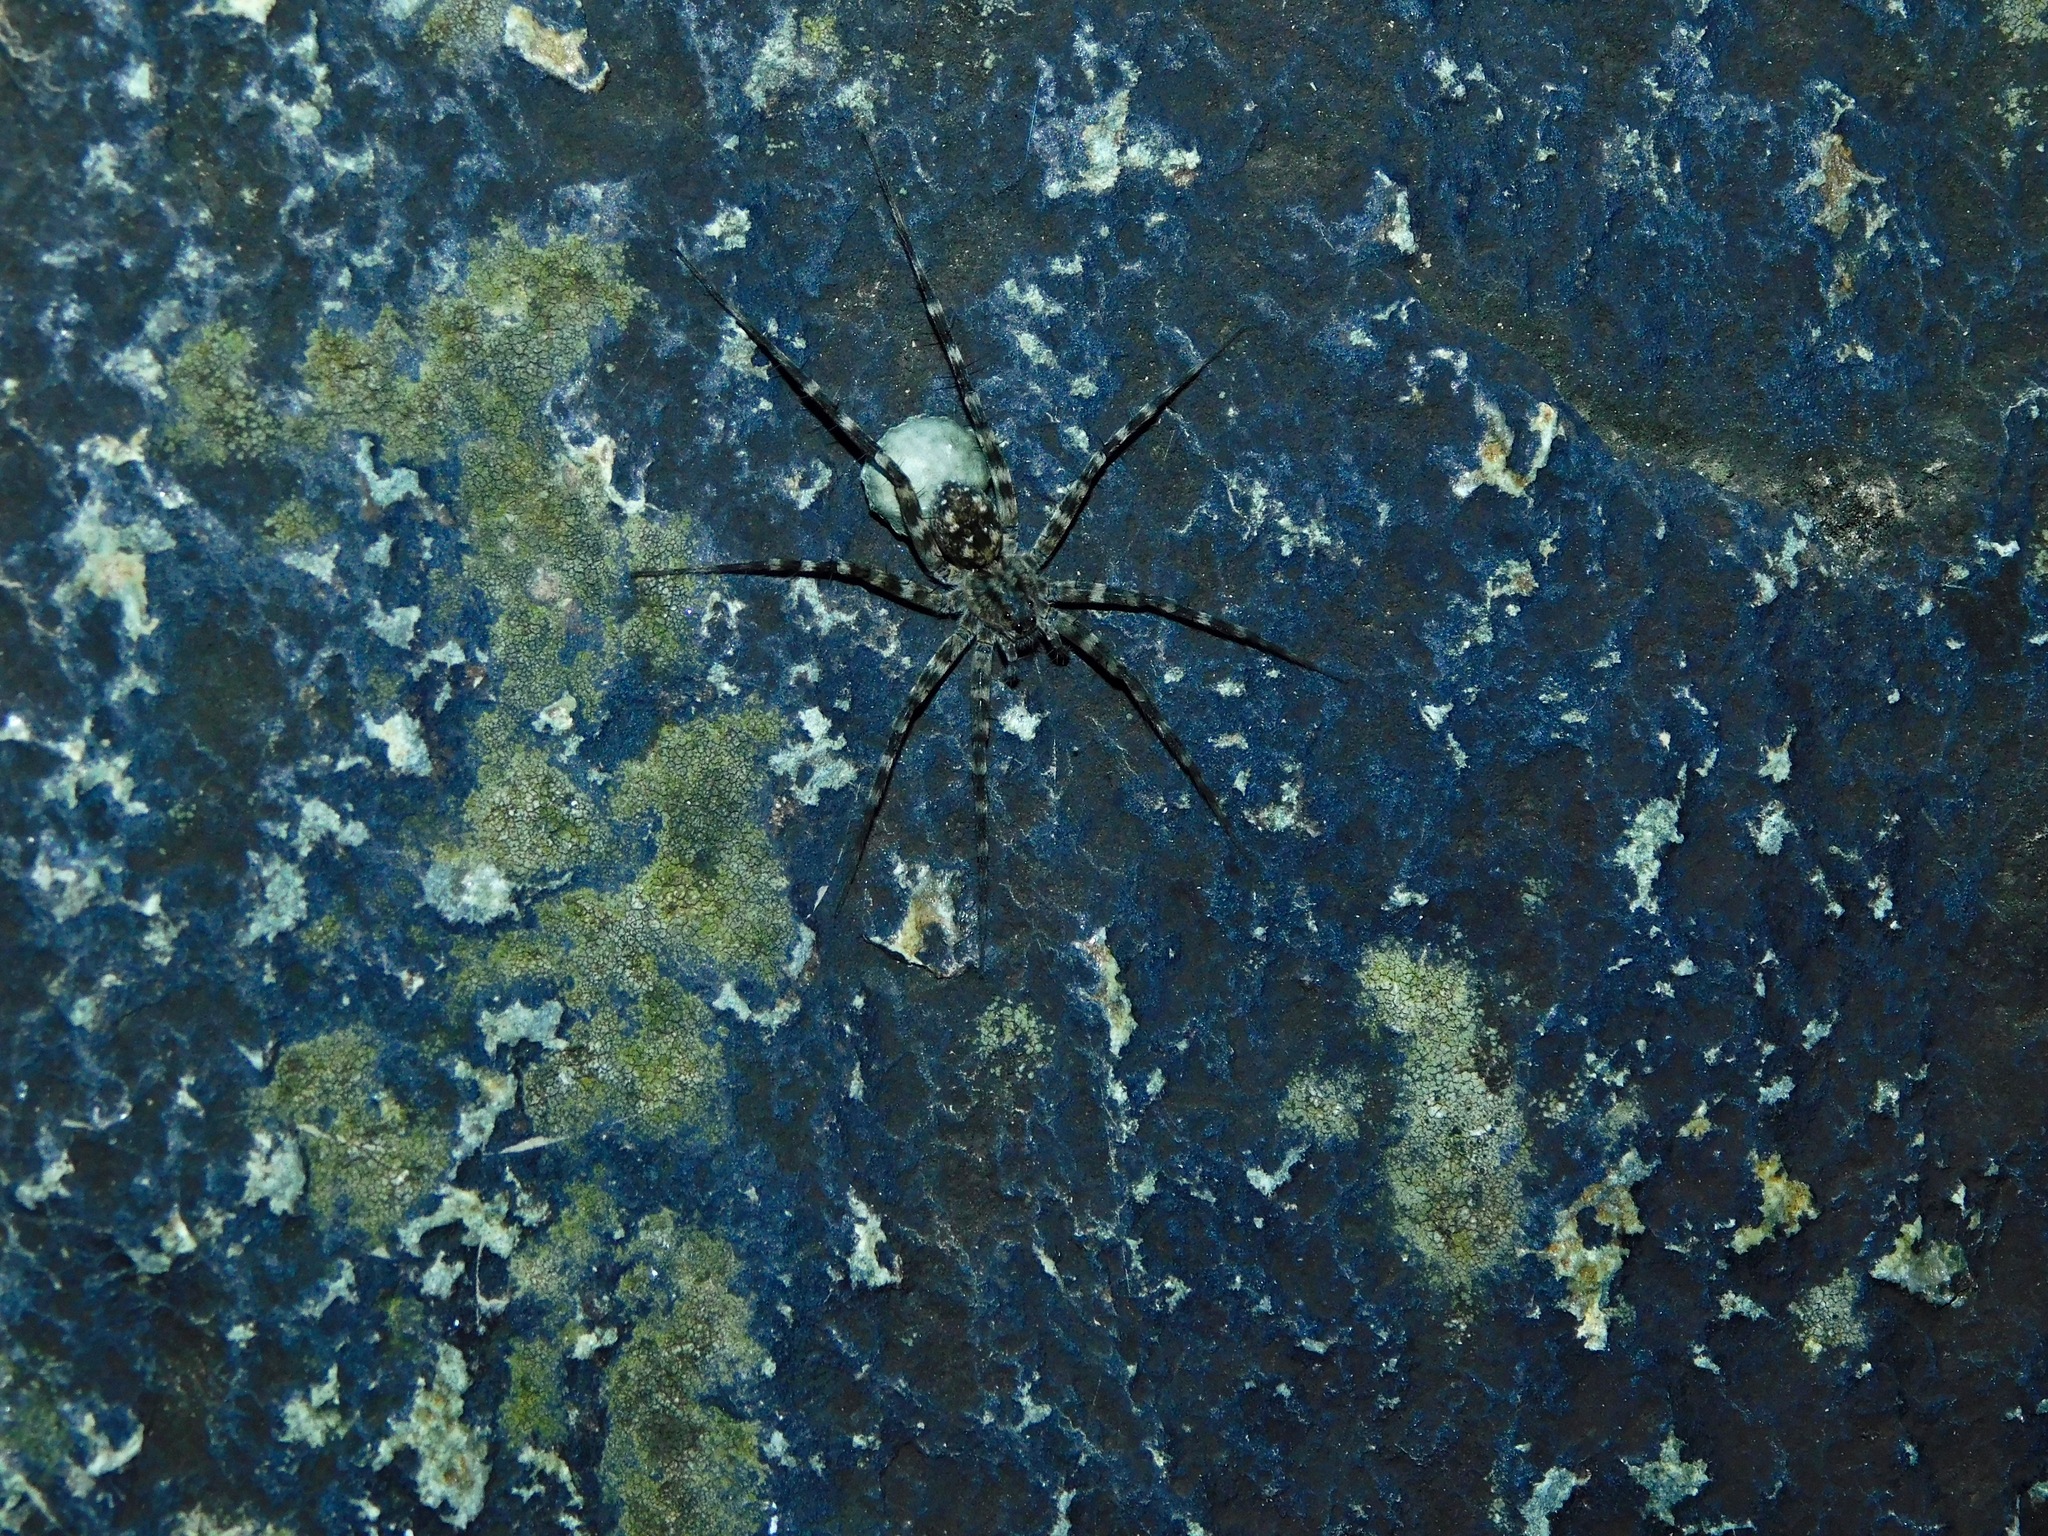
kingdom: Animalia
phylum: Arthropoda
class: Arachnida
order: Araneae
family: Lycosidae
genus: Pardosa
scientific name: Pardosa lapidicina
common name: Stone spider
